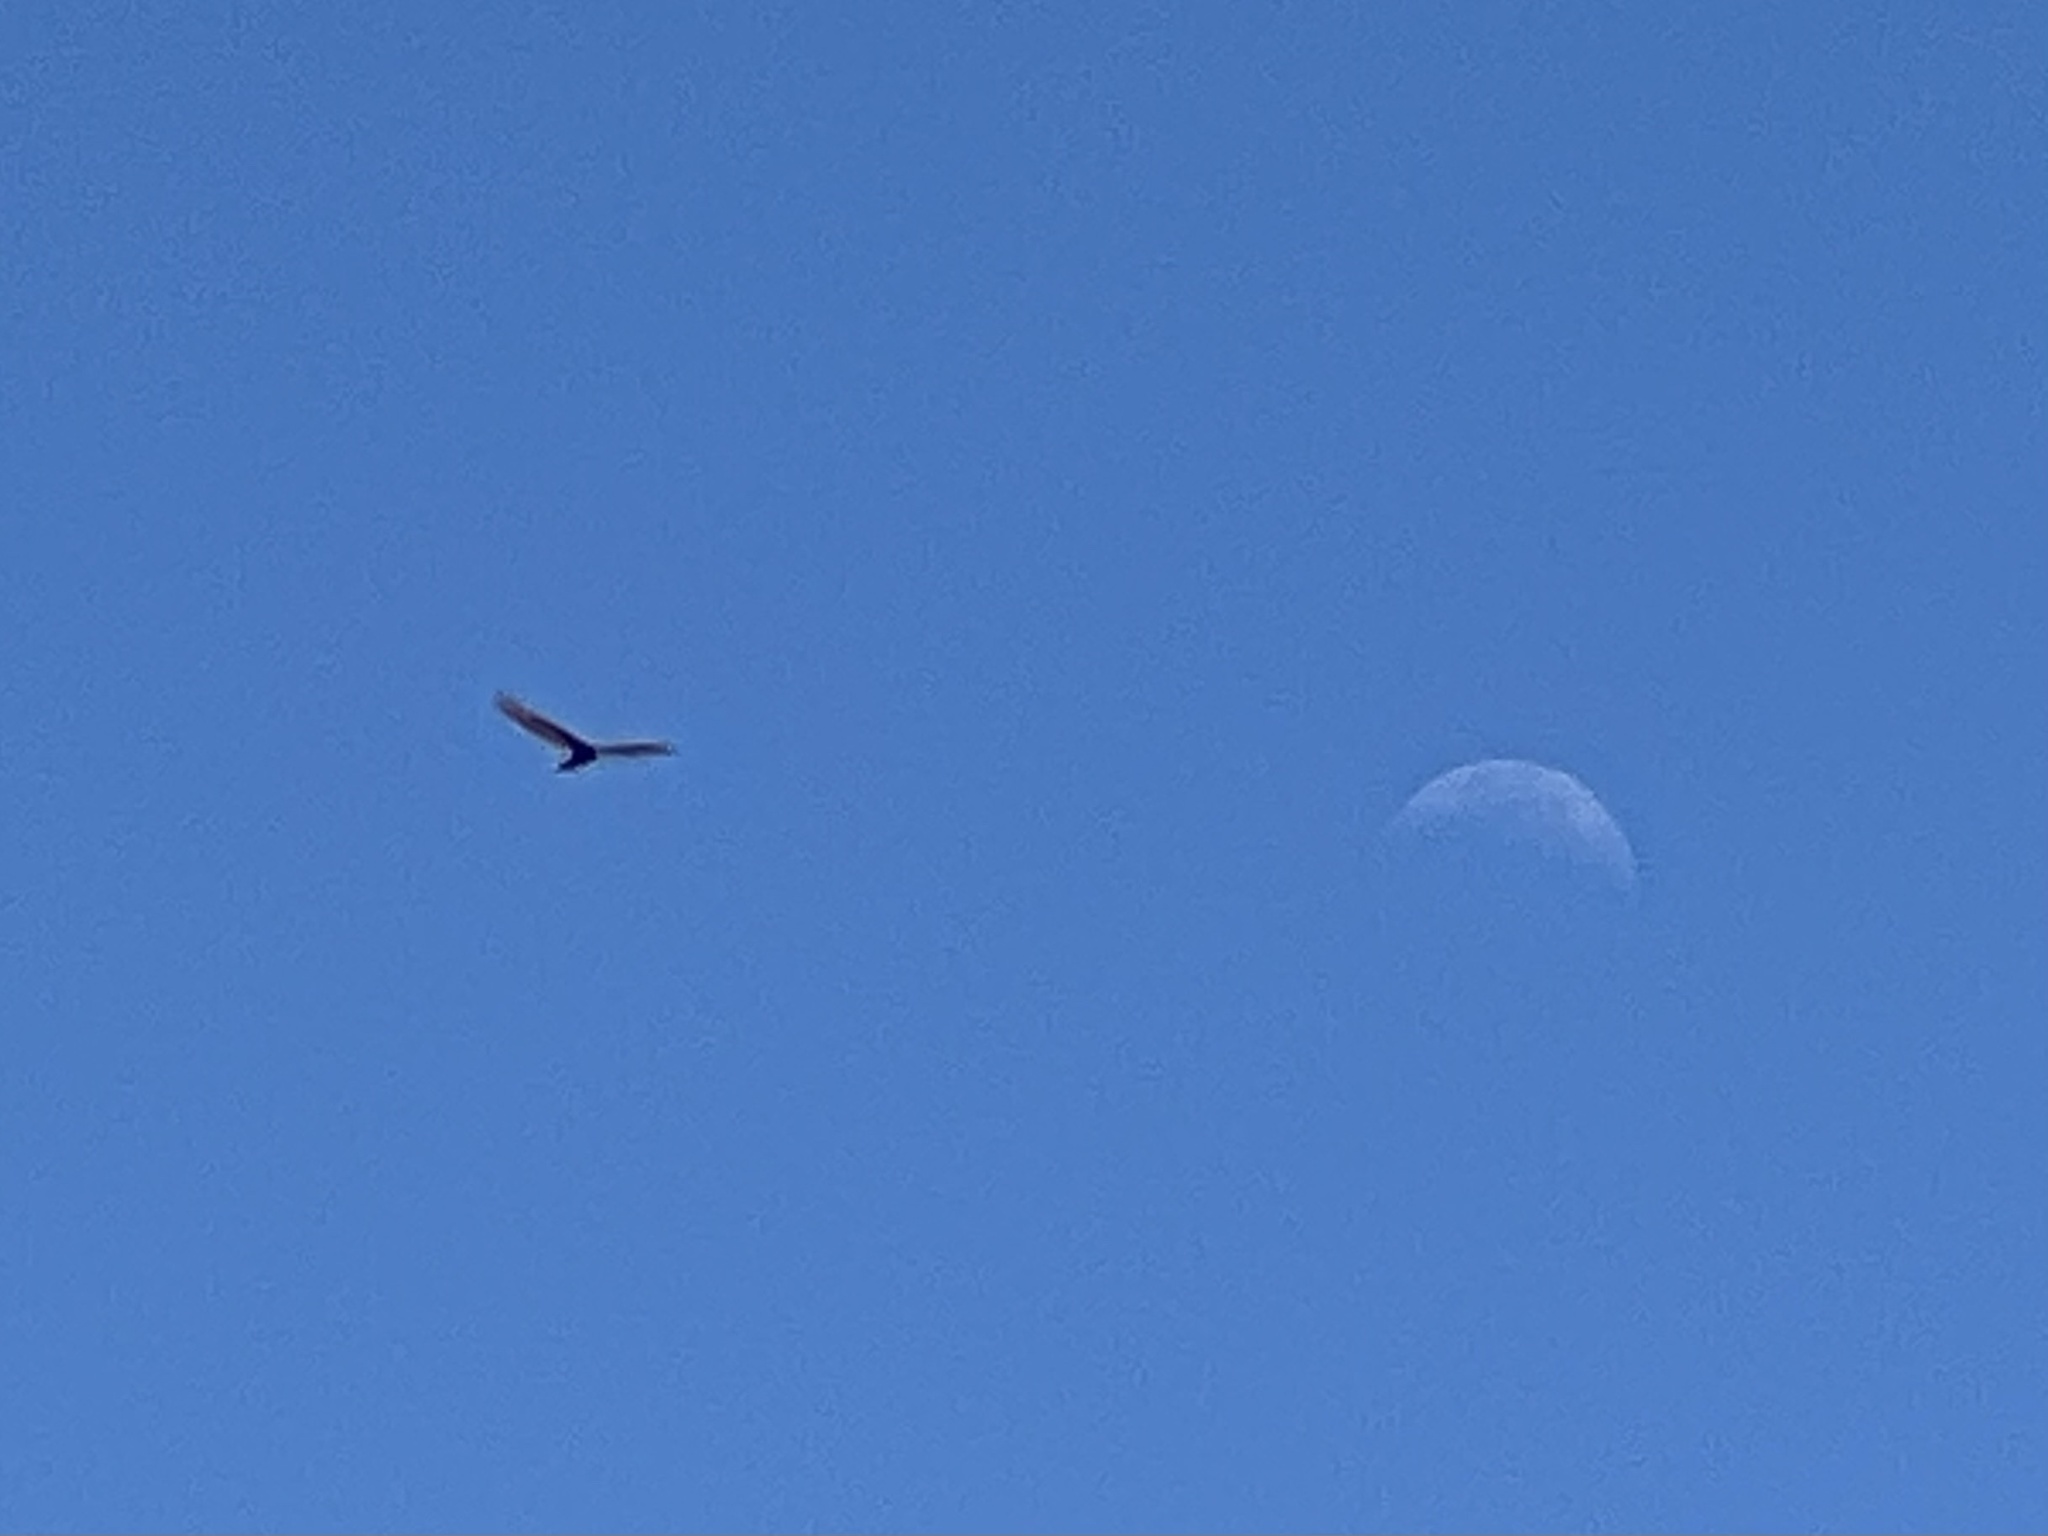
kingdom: Animalia
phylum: Chordata
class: Aves
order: Accipitriformes
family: Cathartidae
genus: Cathartes
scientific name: Cathartes aura
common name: Turkey vulture
